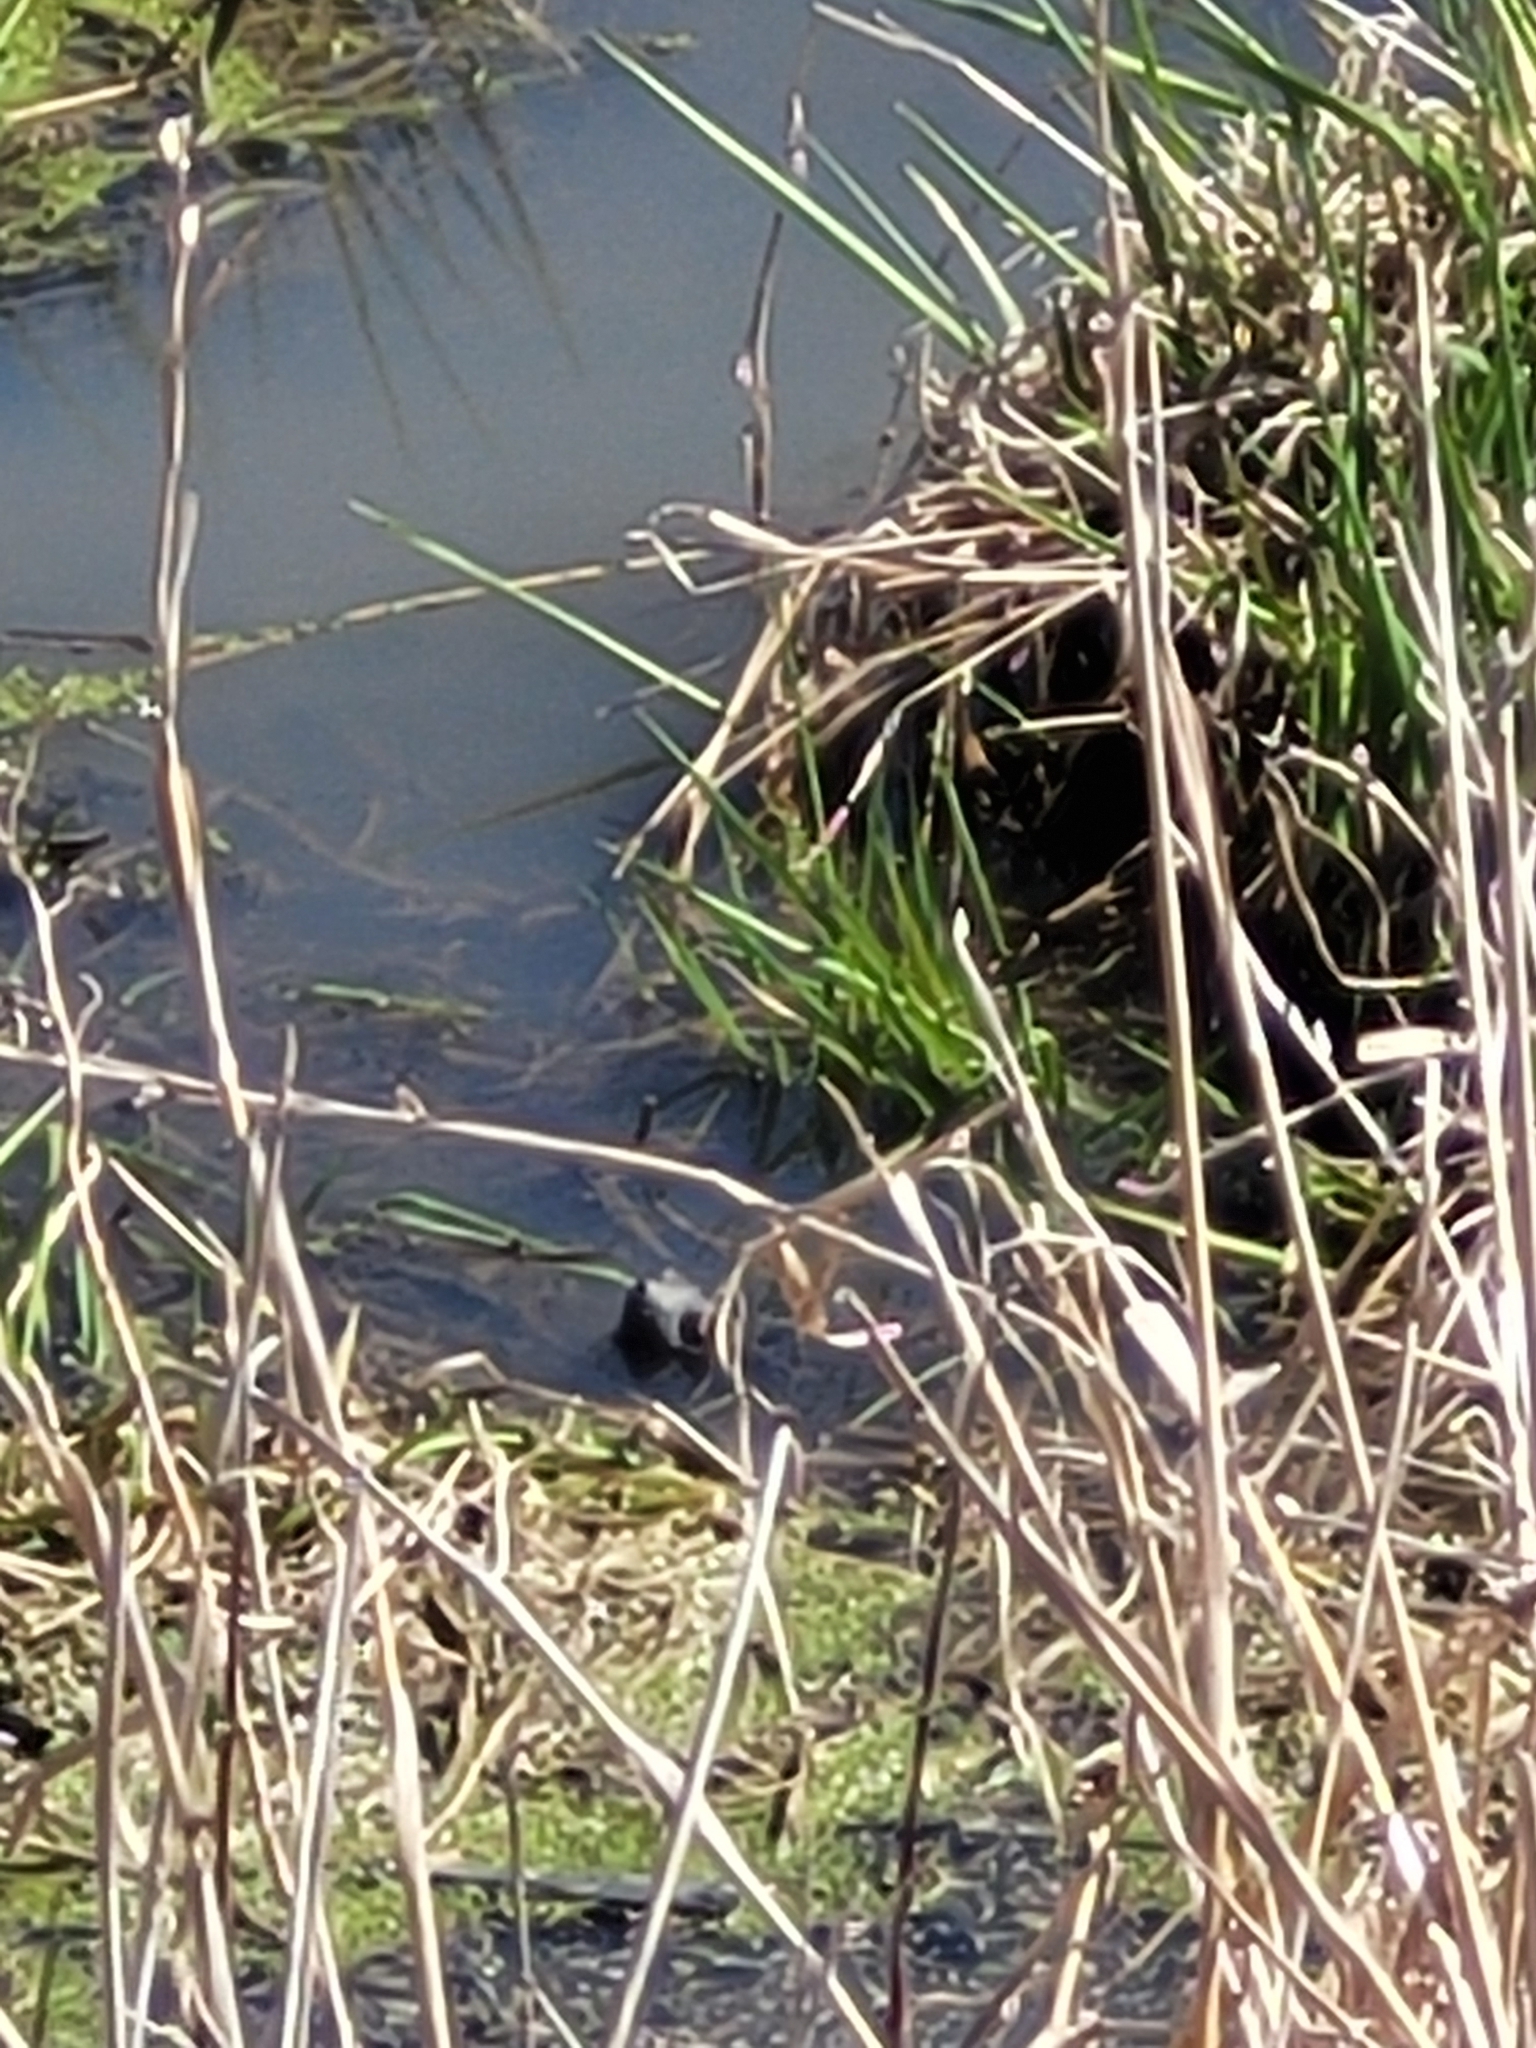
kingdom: Animalia
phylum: Chordata
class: Testudines
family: Chelydridae
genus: Chelydra
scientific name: Chelydra serpentina
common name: Common snapping turtle
